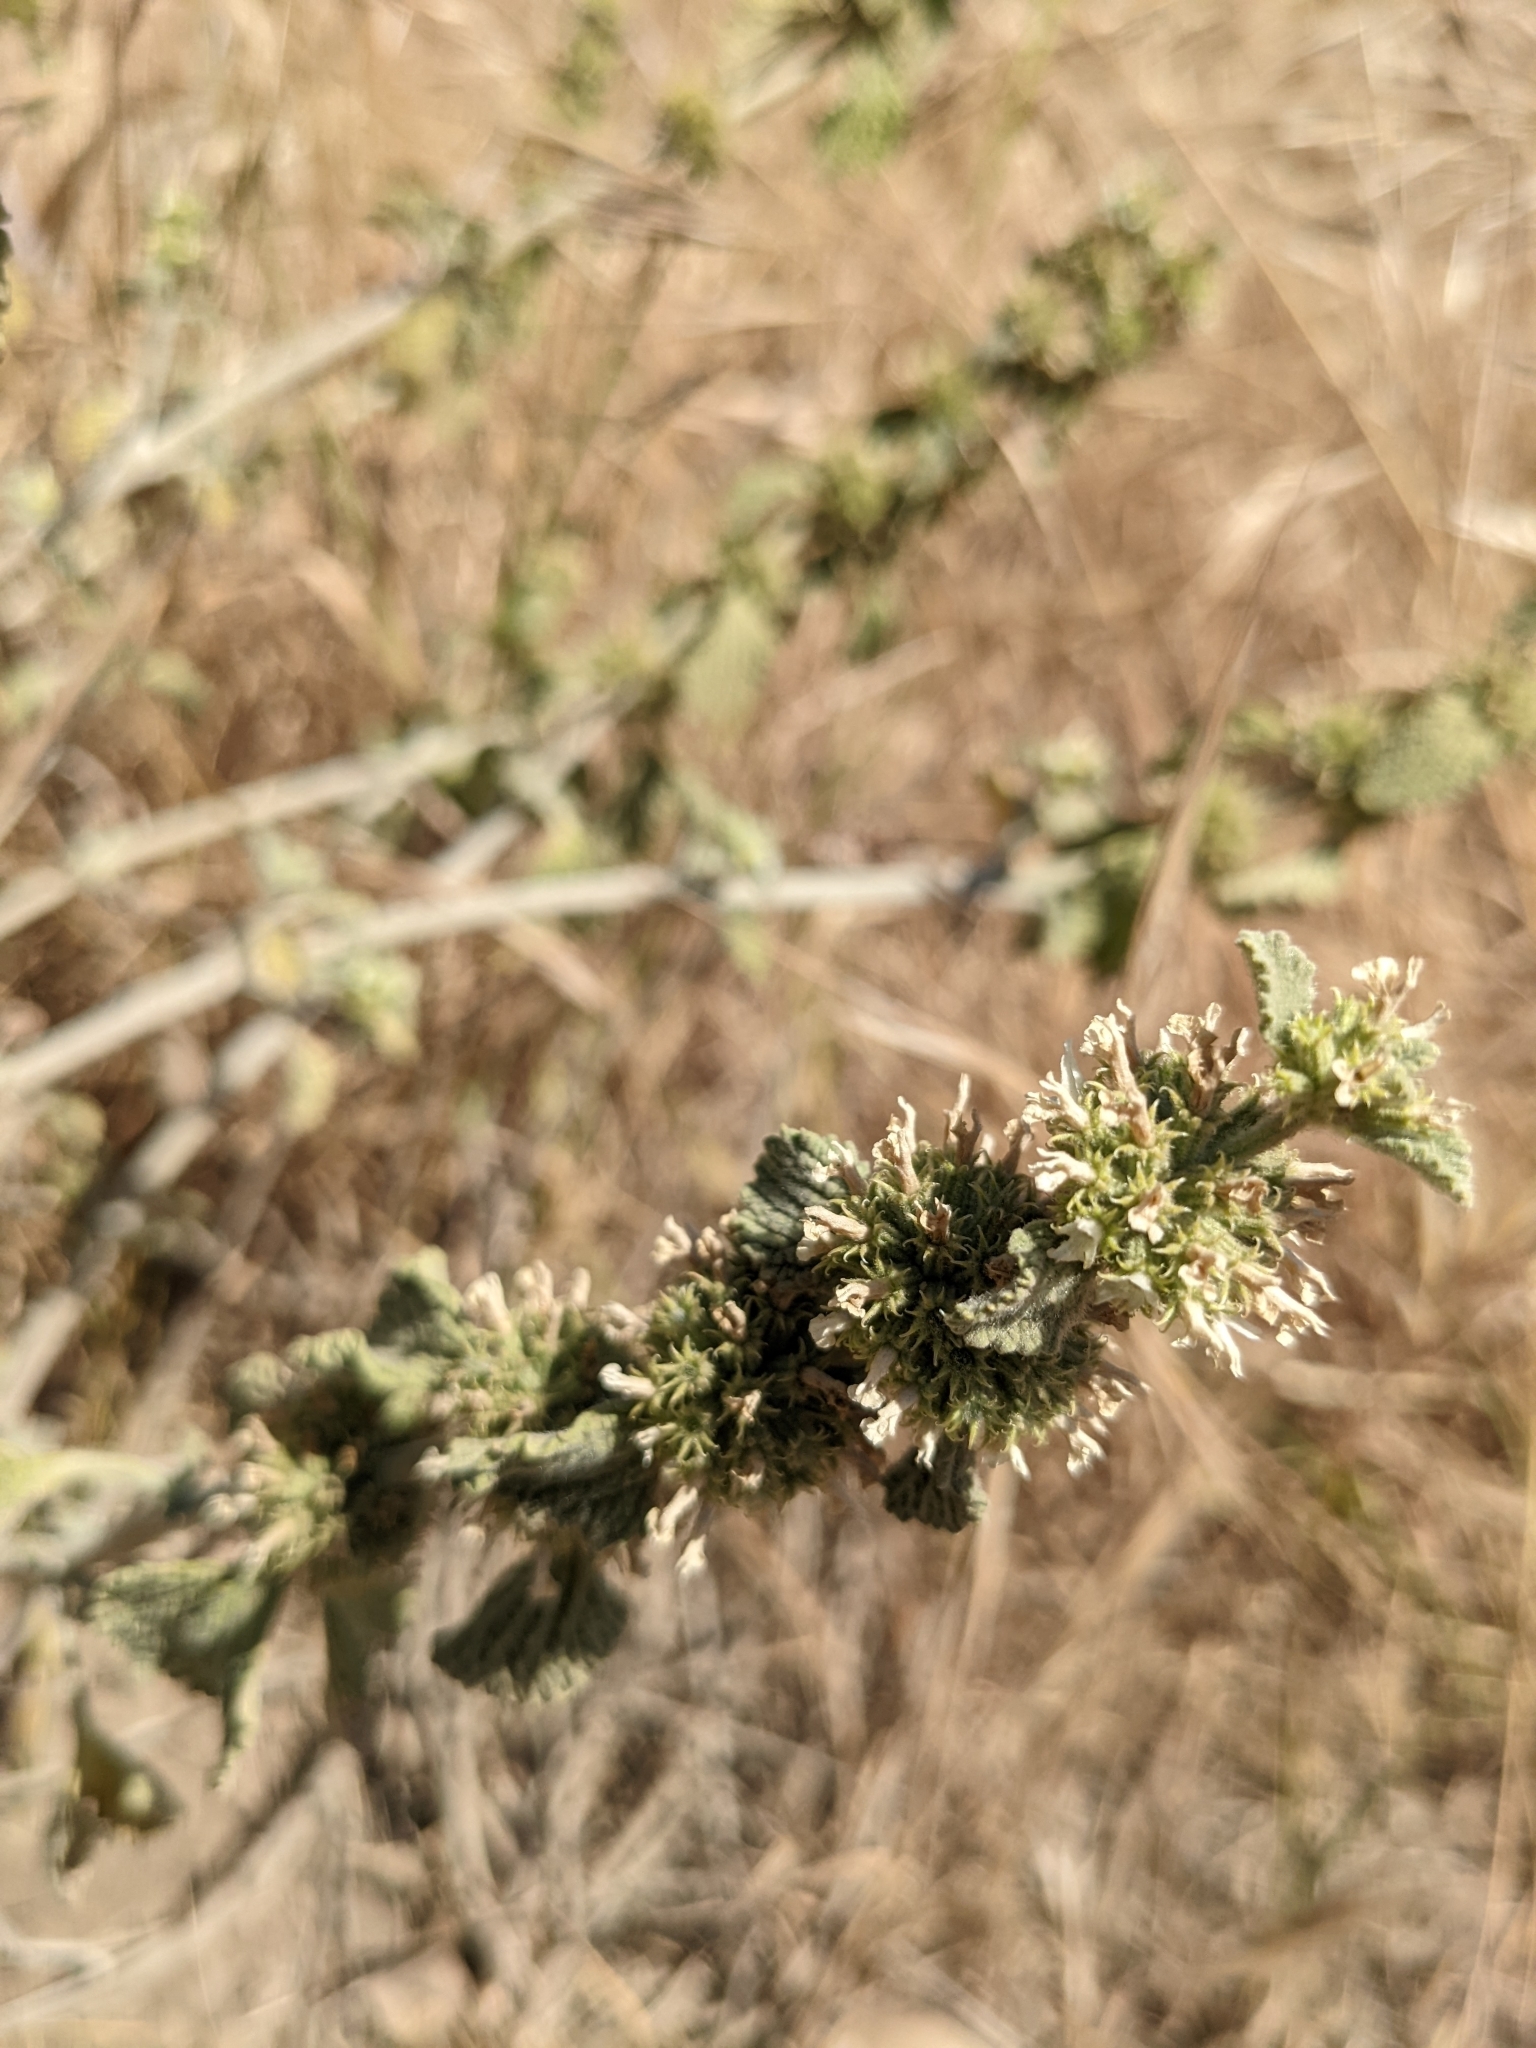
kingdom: Plantae
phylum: Tracheophyta
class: Magnoliopsida
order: Lamiales
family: Lamiaceae
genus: Marrubium
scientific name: Marrubium vulgare
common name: Horehound
